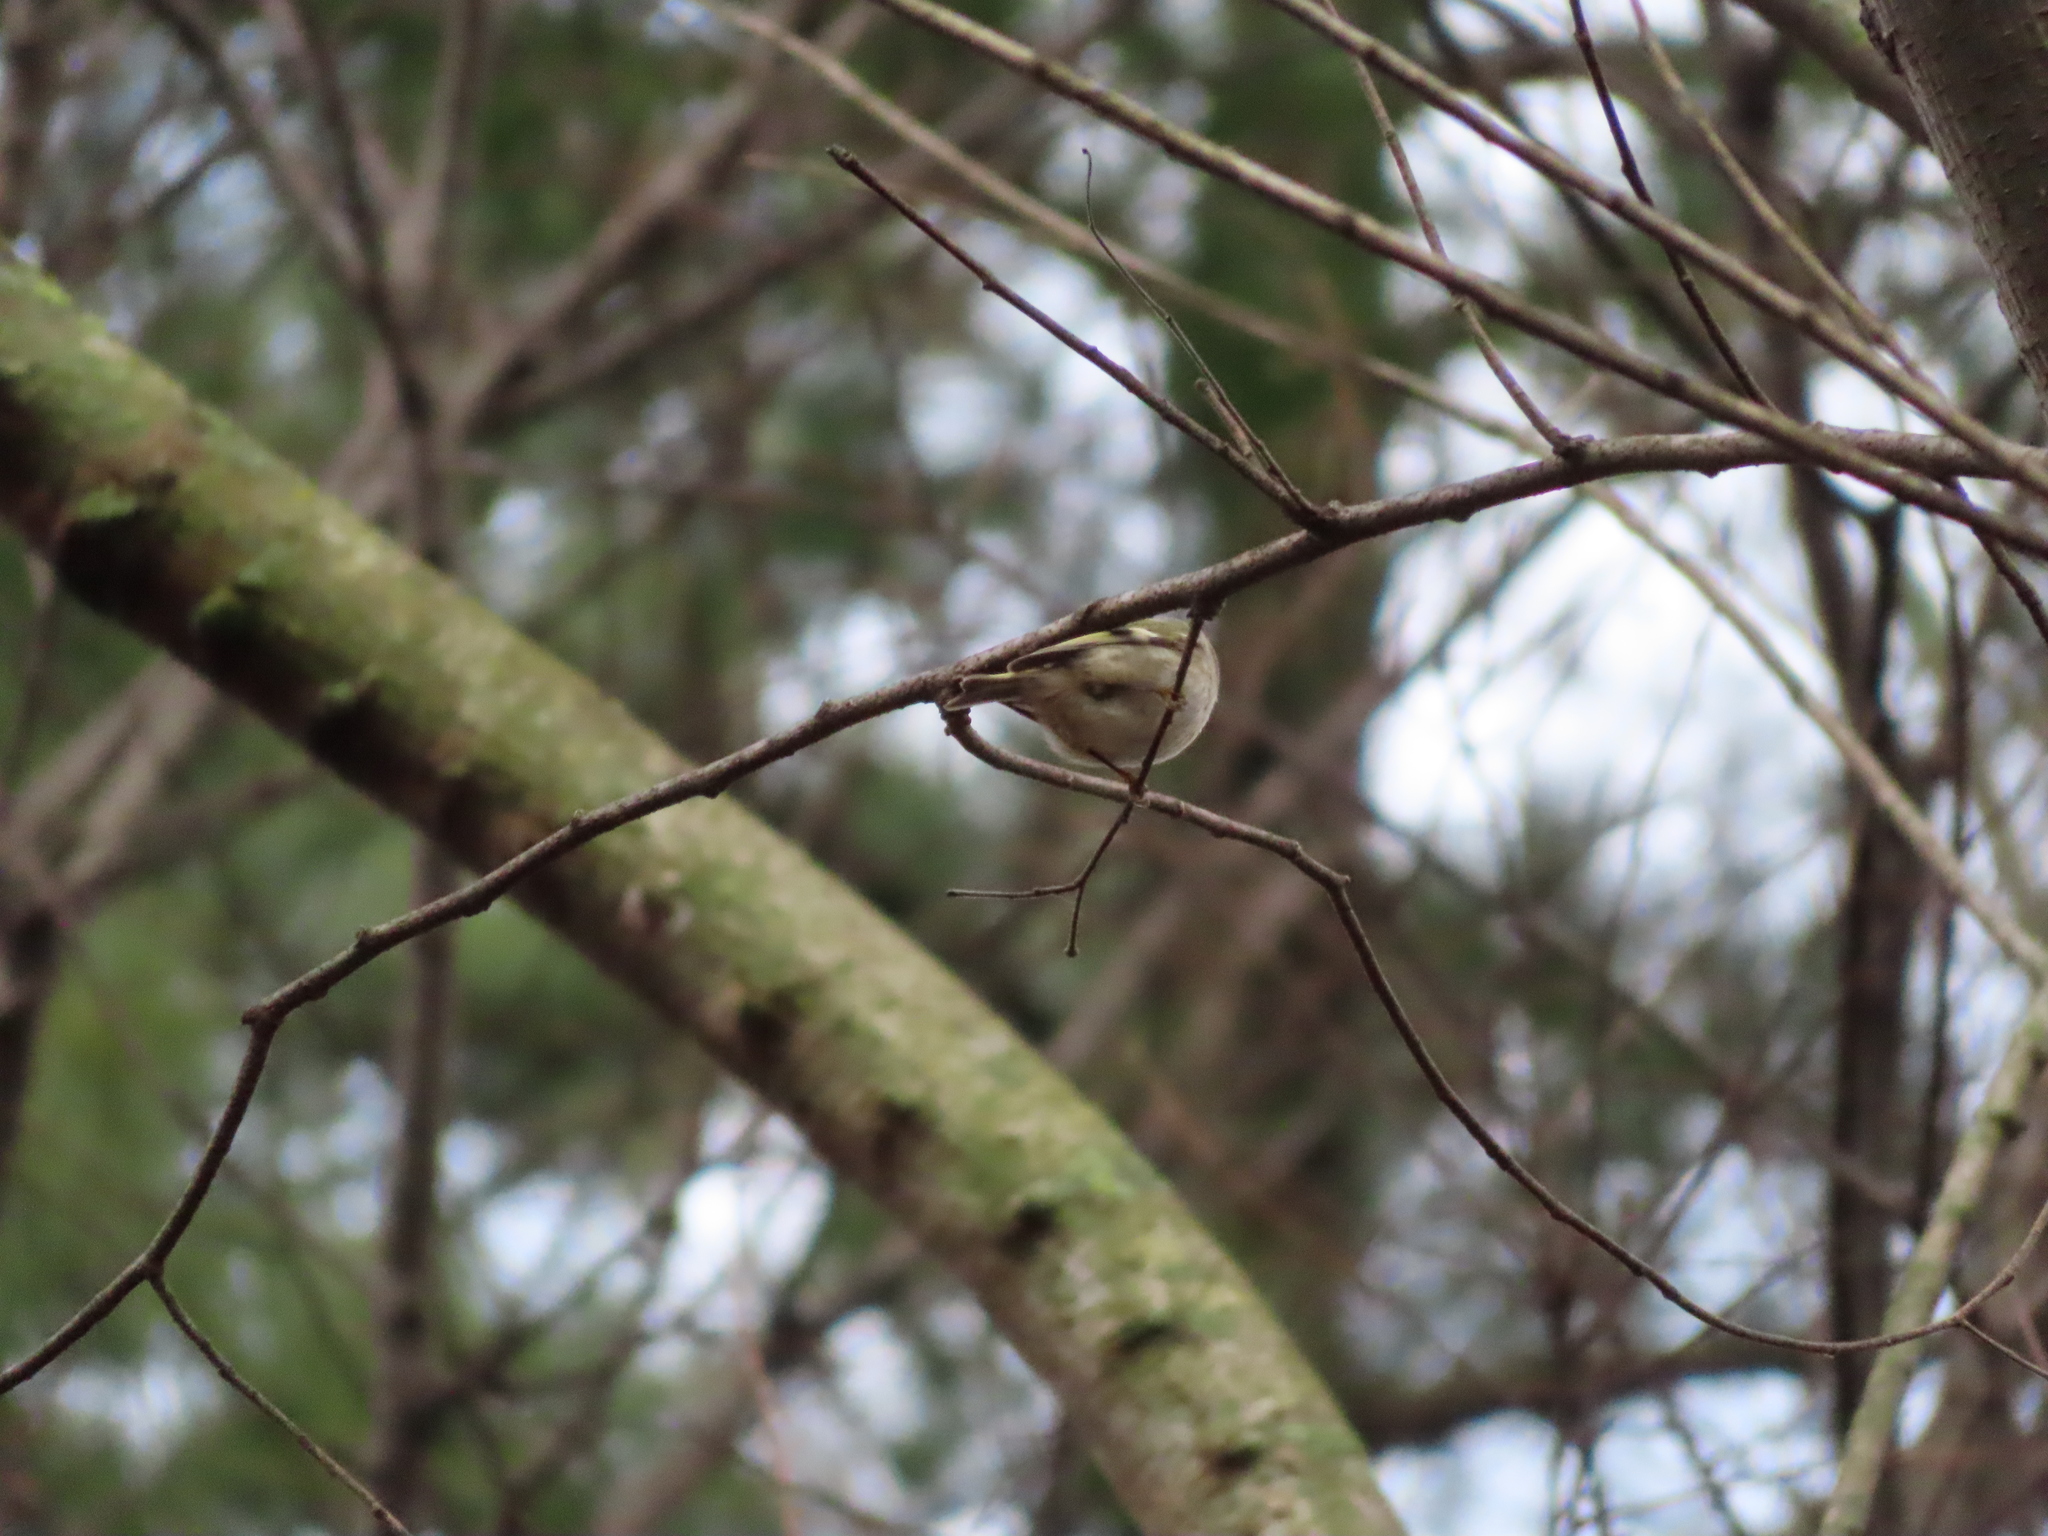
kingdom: Animalia
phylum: Chordata
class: Aves
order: Passeriformes
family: Regulidae
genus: Regulus
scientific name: Regulus calendula
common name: Ruby-crowned kinglet
